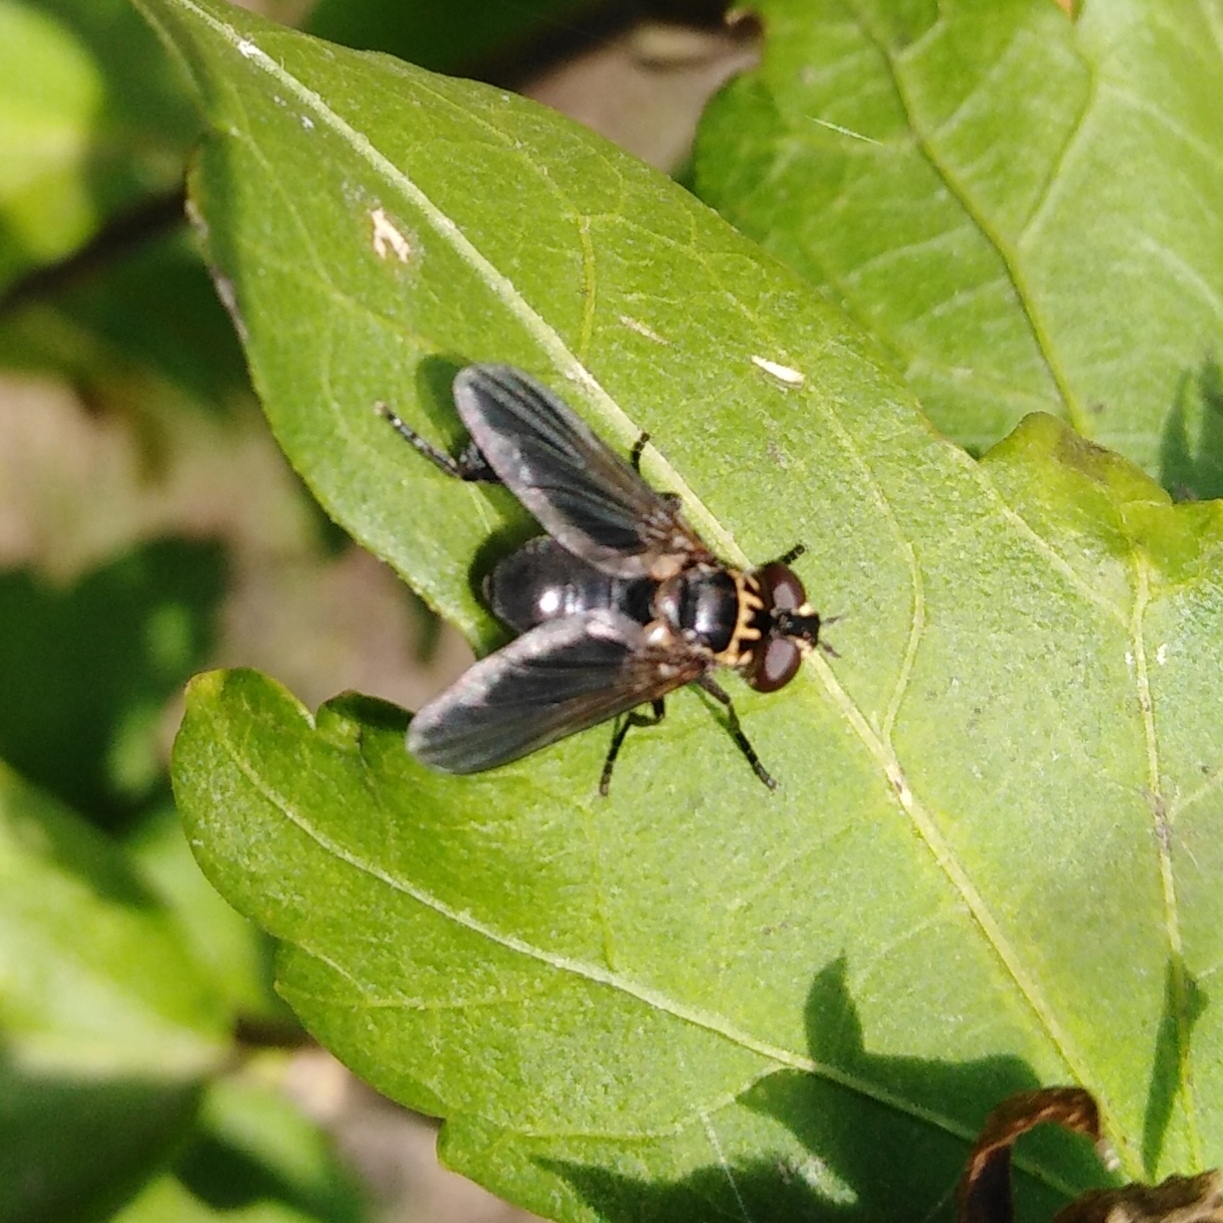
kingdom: Animalia
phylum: Arthropoda
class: Insecta
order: Diptera
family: Tachinidae
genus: Trichopoda
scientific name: Trichopoda pictipennis
